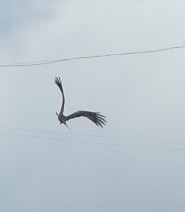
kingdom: Animalia
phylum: Chordata
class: Aves
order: Accipitriformes
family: Accipitridae
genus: Milvus
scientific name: Milvus migrans
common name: Black kite
